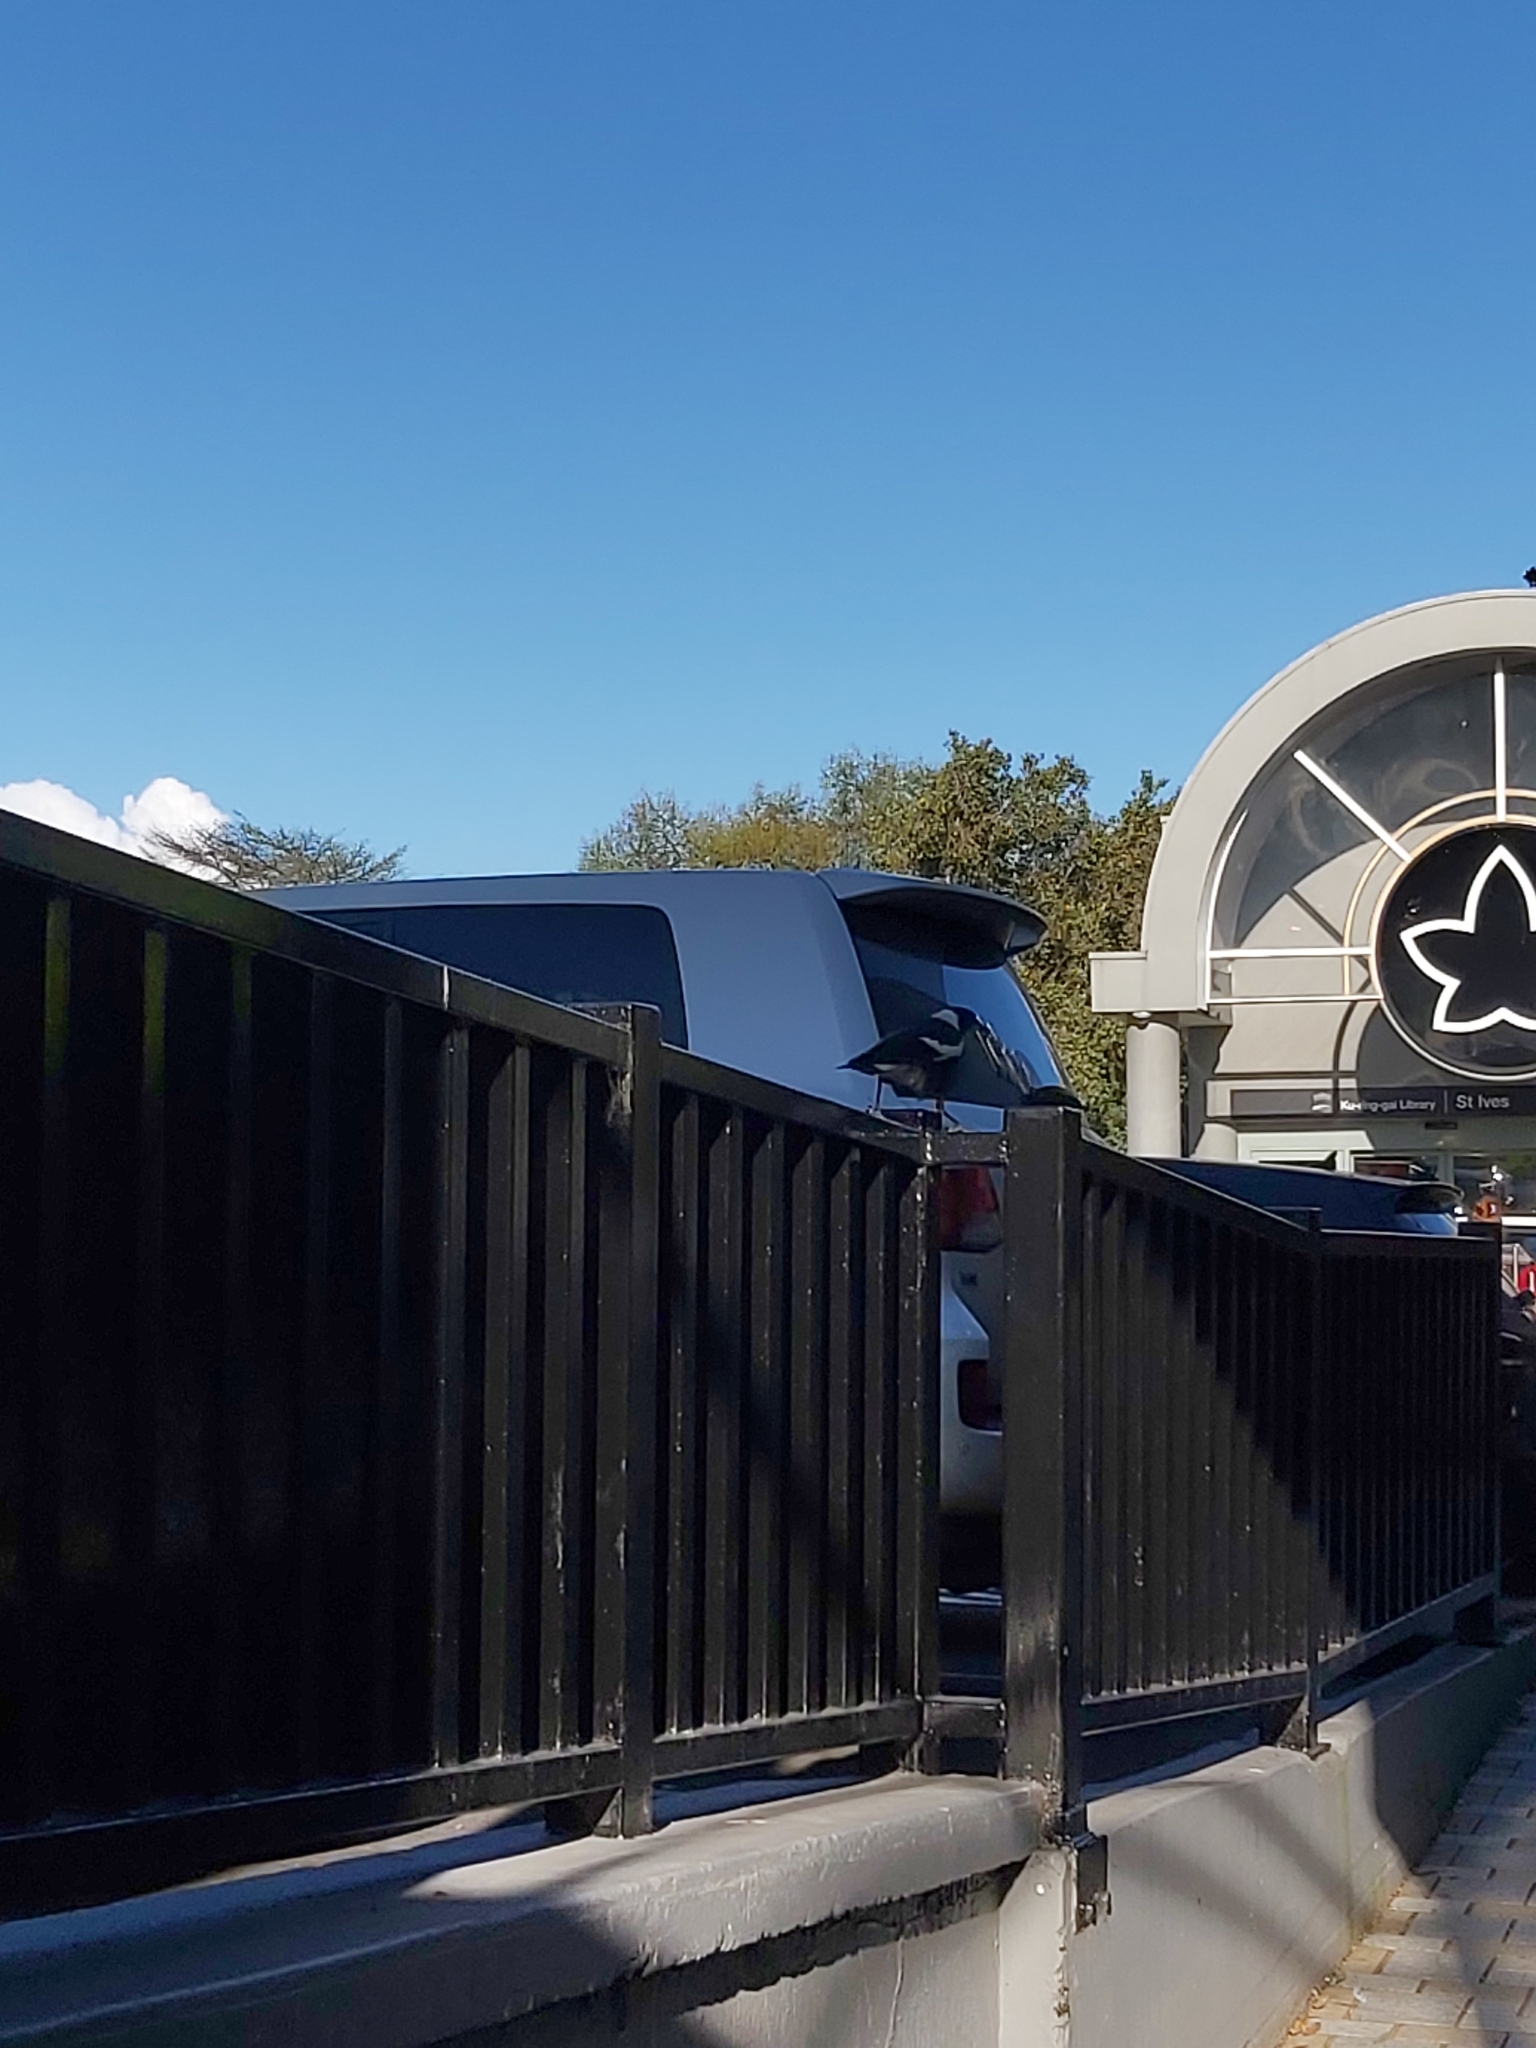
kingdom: Animalia
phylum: Chordata
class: Aves
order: Passeriformes
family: Cracticidae
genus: Gymnorhina
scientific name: Gymnorhina tibicen
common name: Australian magpie
